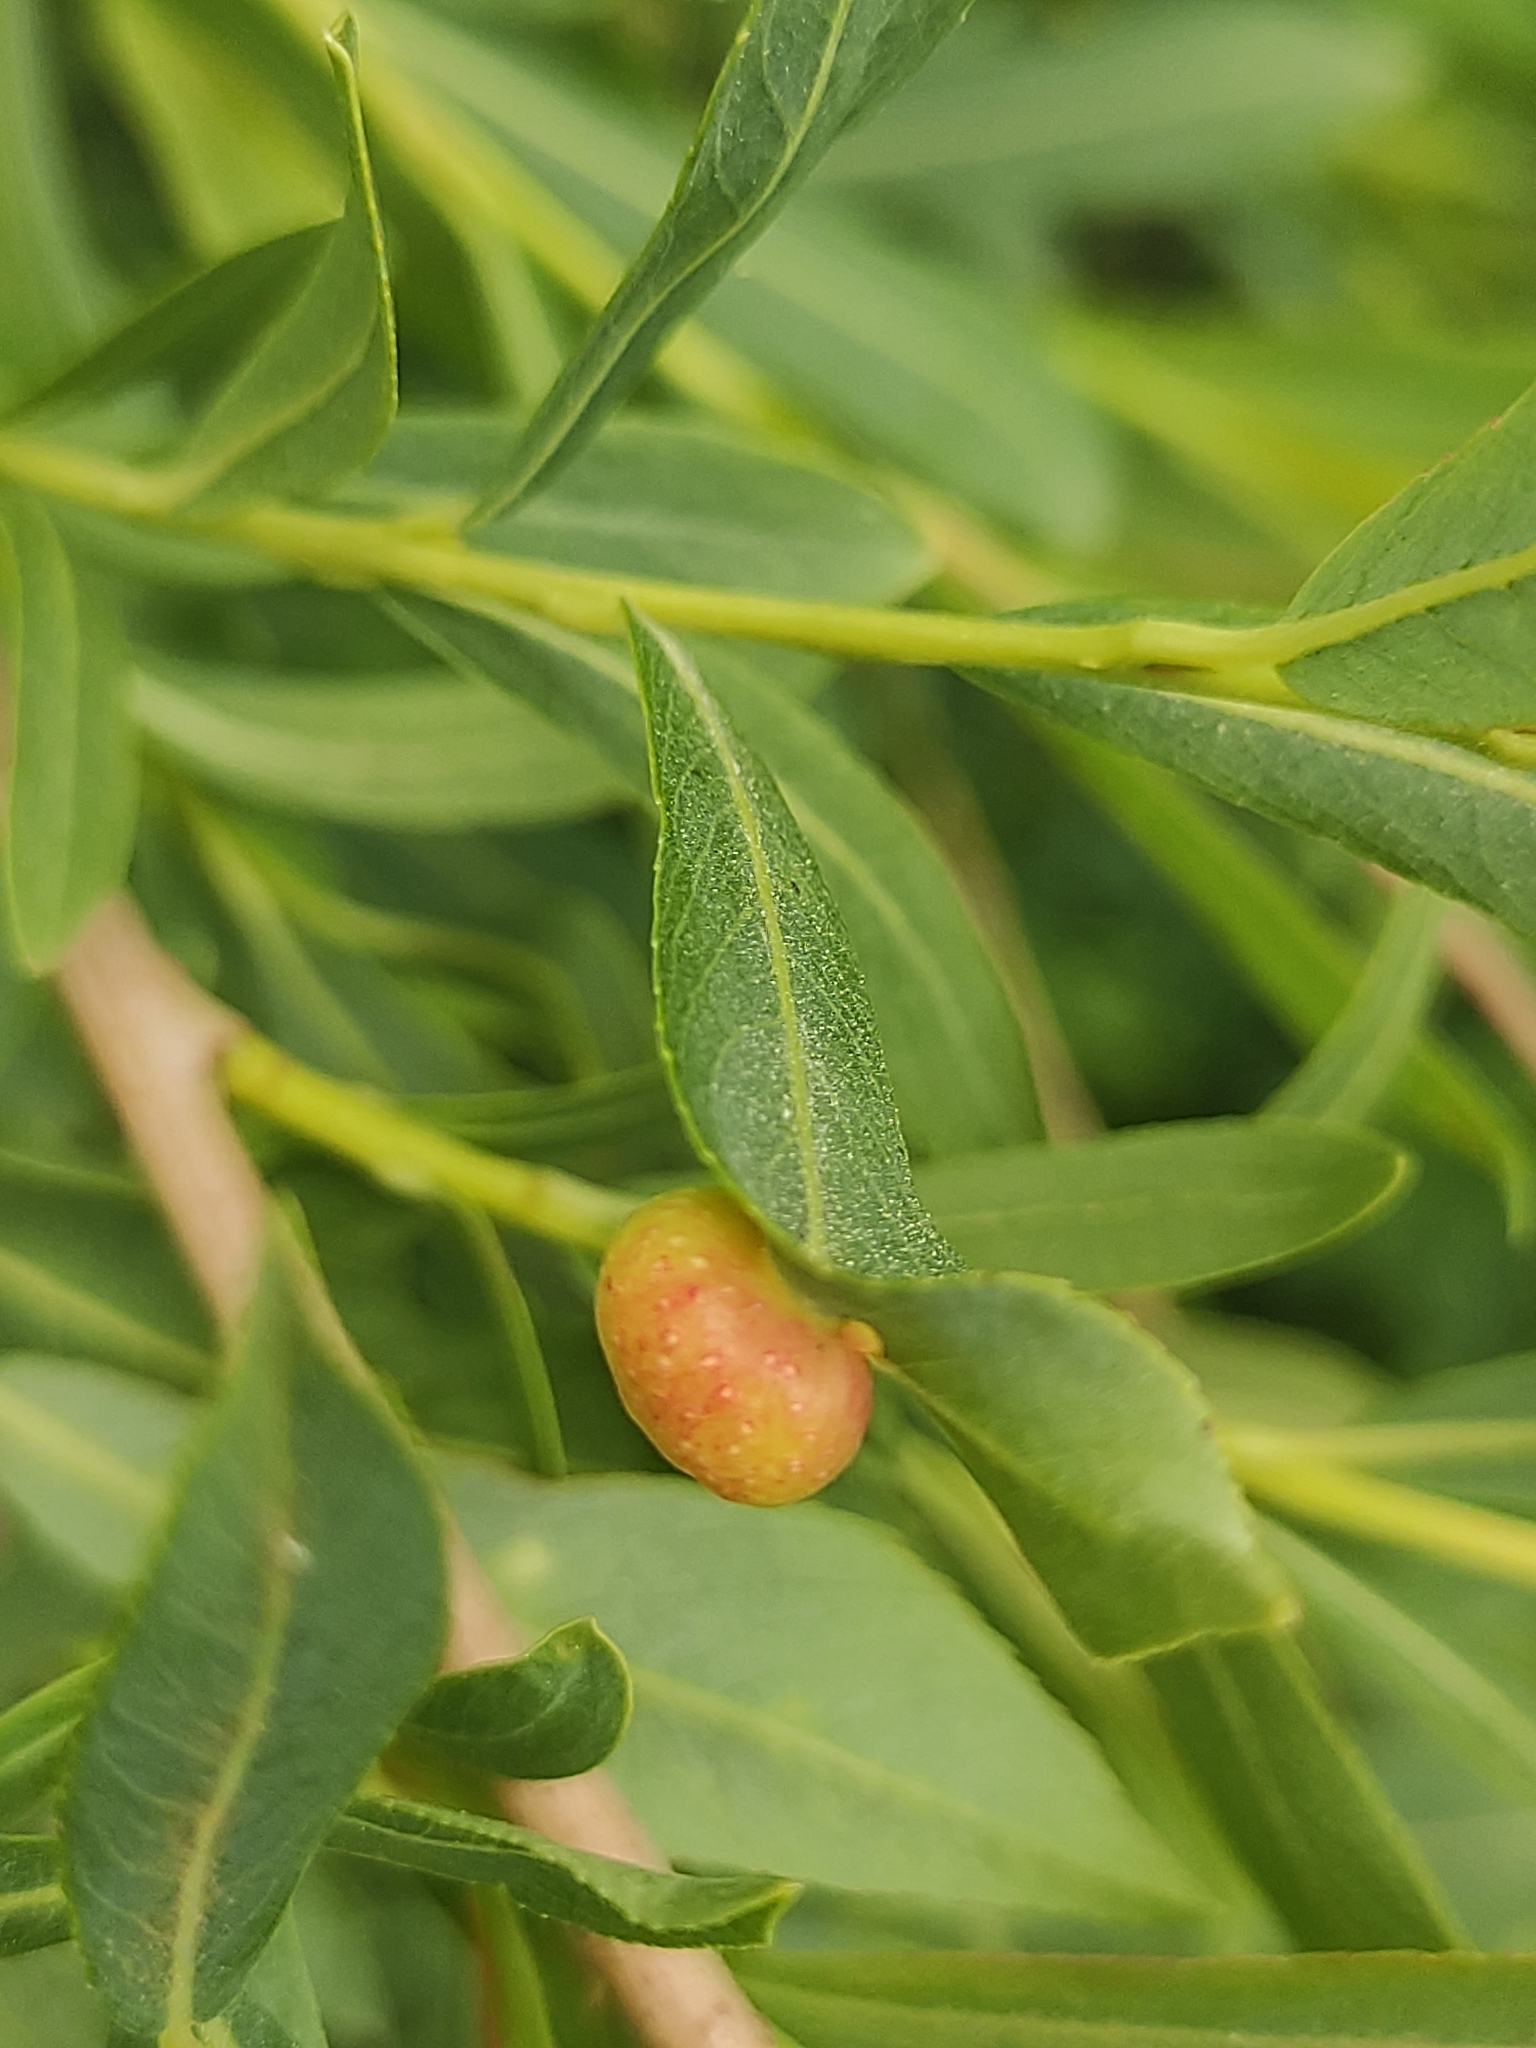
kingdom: Animalia
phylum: Arthropoda
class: Insecta
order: Hymenoptera
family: Tenthredinidae
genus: Euura
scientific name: Euura viminalis
